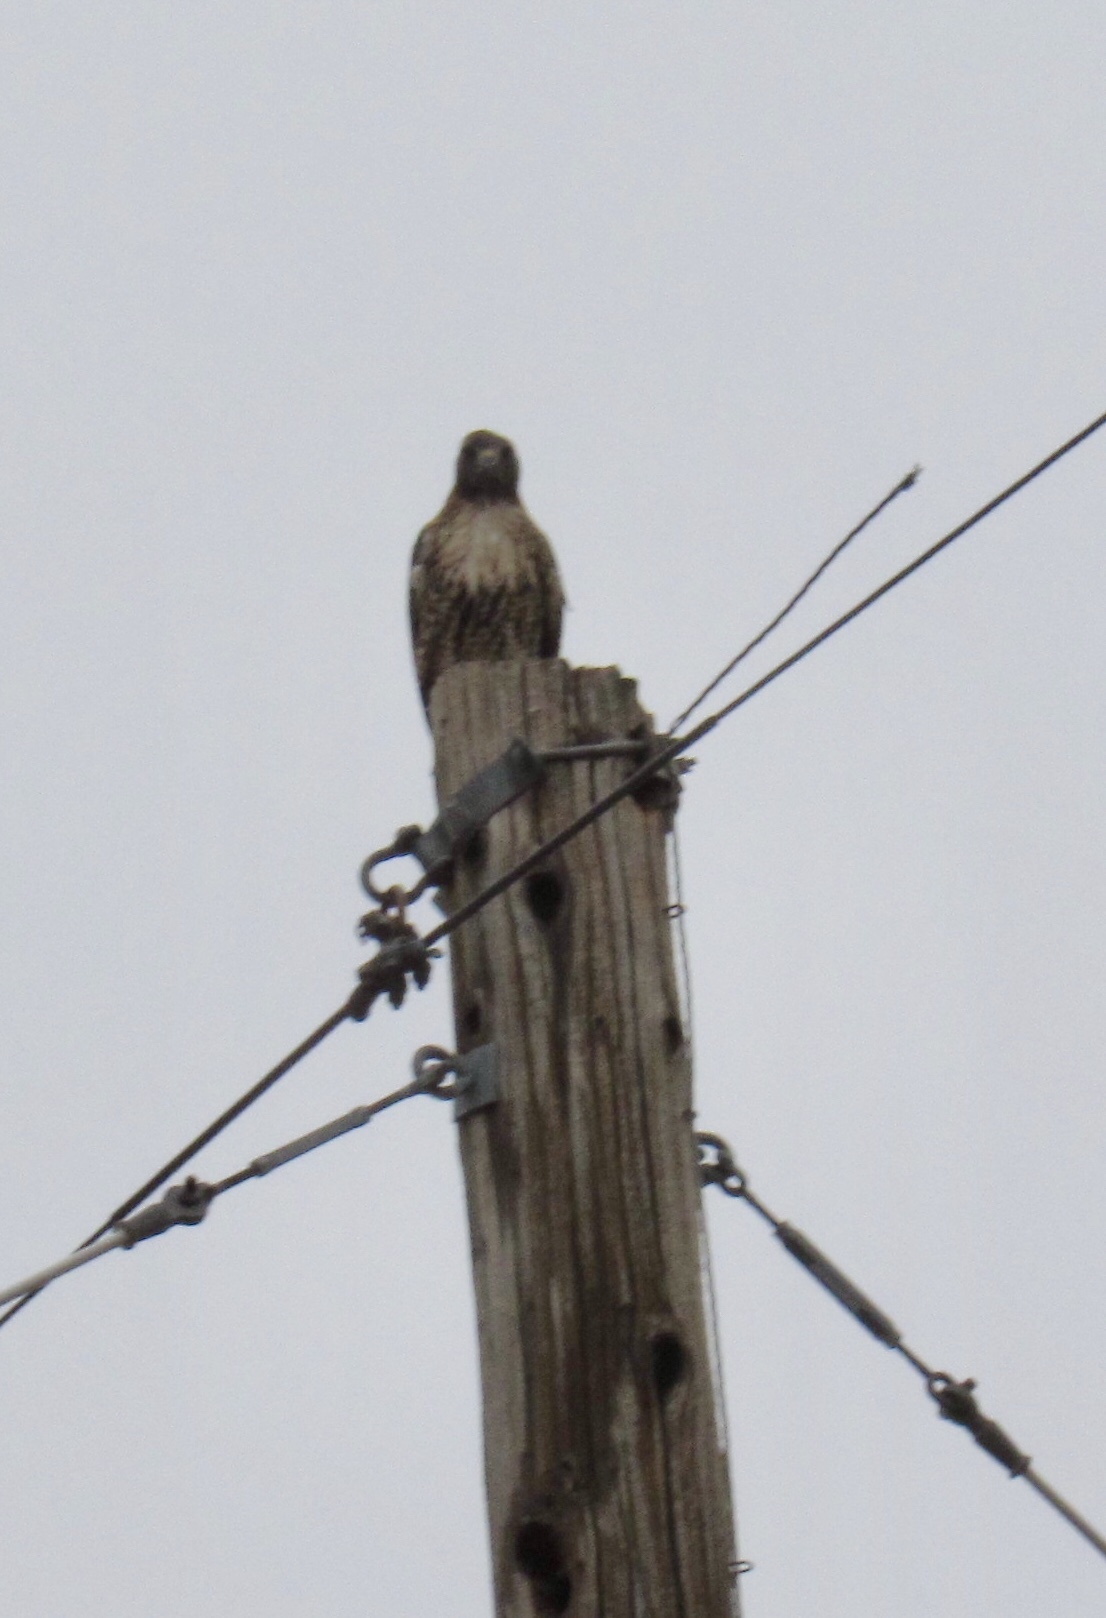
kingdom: Animalia
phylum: Chordata
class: Aves
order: Accipitriformes
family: Accipitridae
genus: Buteo
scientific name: Buteo jamaicensis
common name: Red-tailed hawk
